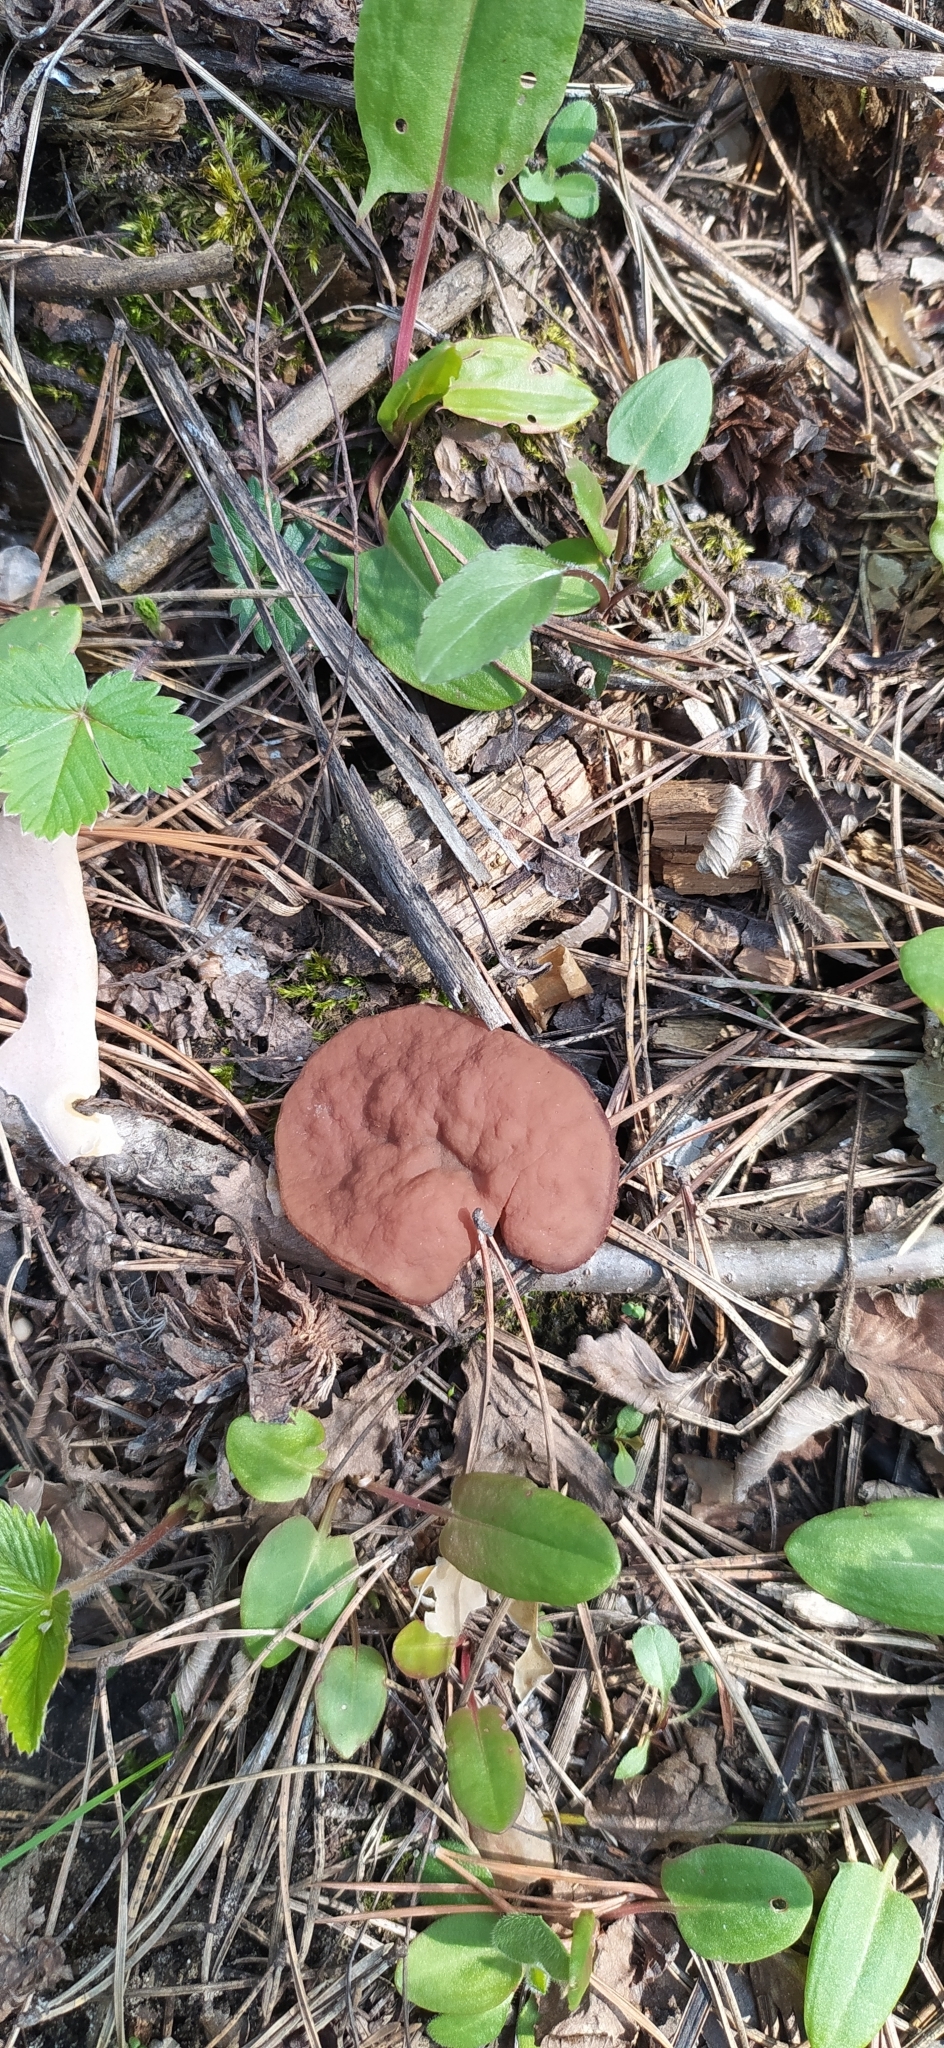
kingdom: Fungi
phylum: Ascomycota
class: Pezizomycetes
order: Pezizales
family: Discinaceae
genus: Discina
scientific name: Discina ancilis
